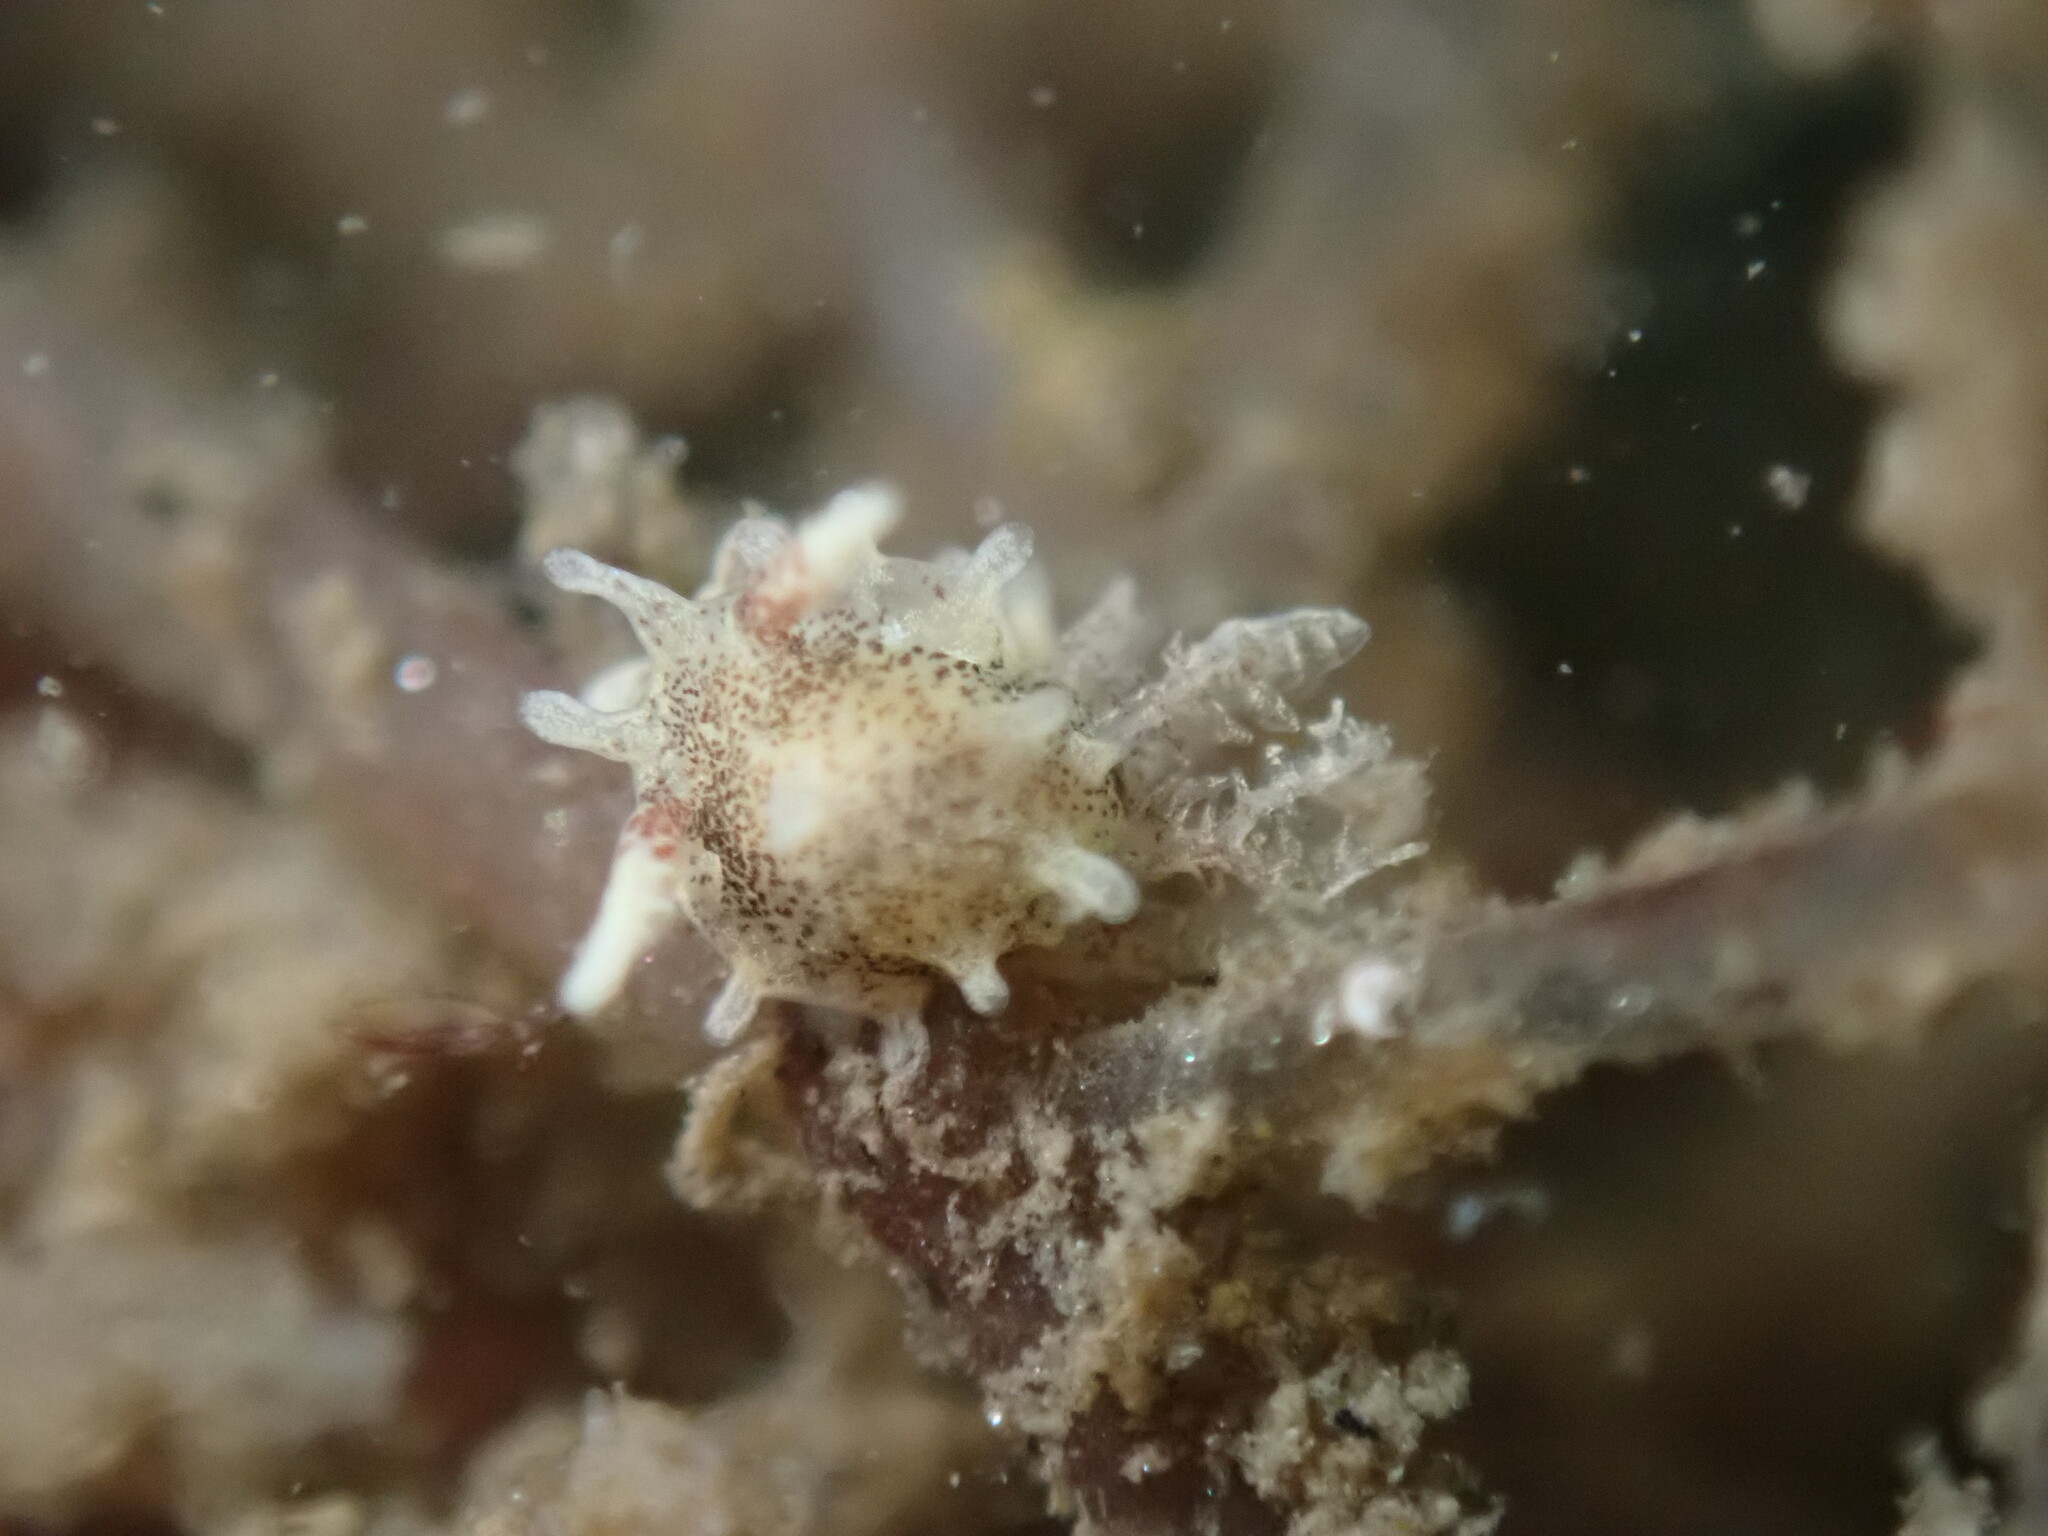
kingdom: Animalia
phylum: Mollusca
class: Gastropoda
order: Nudibranchia
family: Goniodorididae
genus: Okenia
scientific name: Okenia
